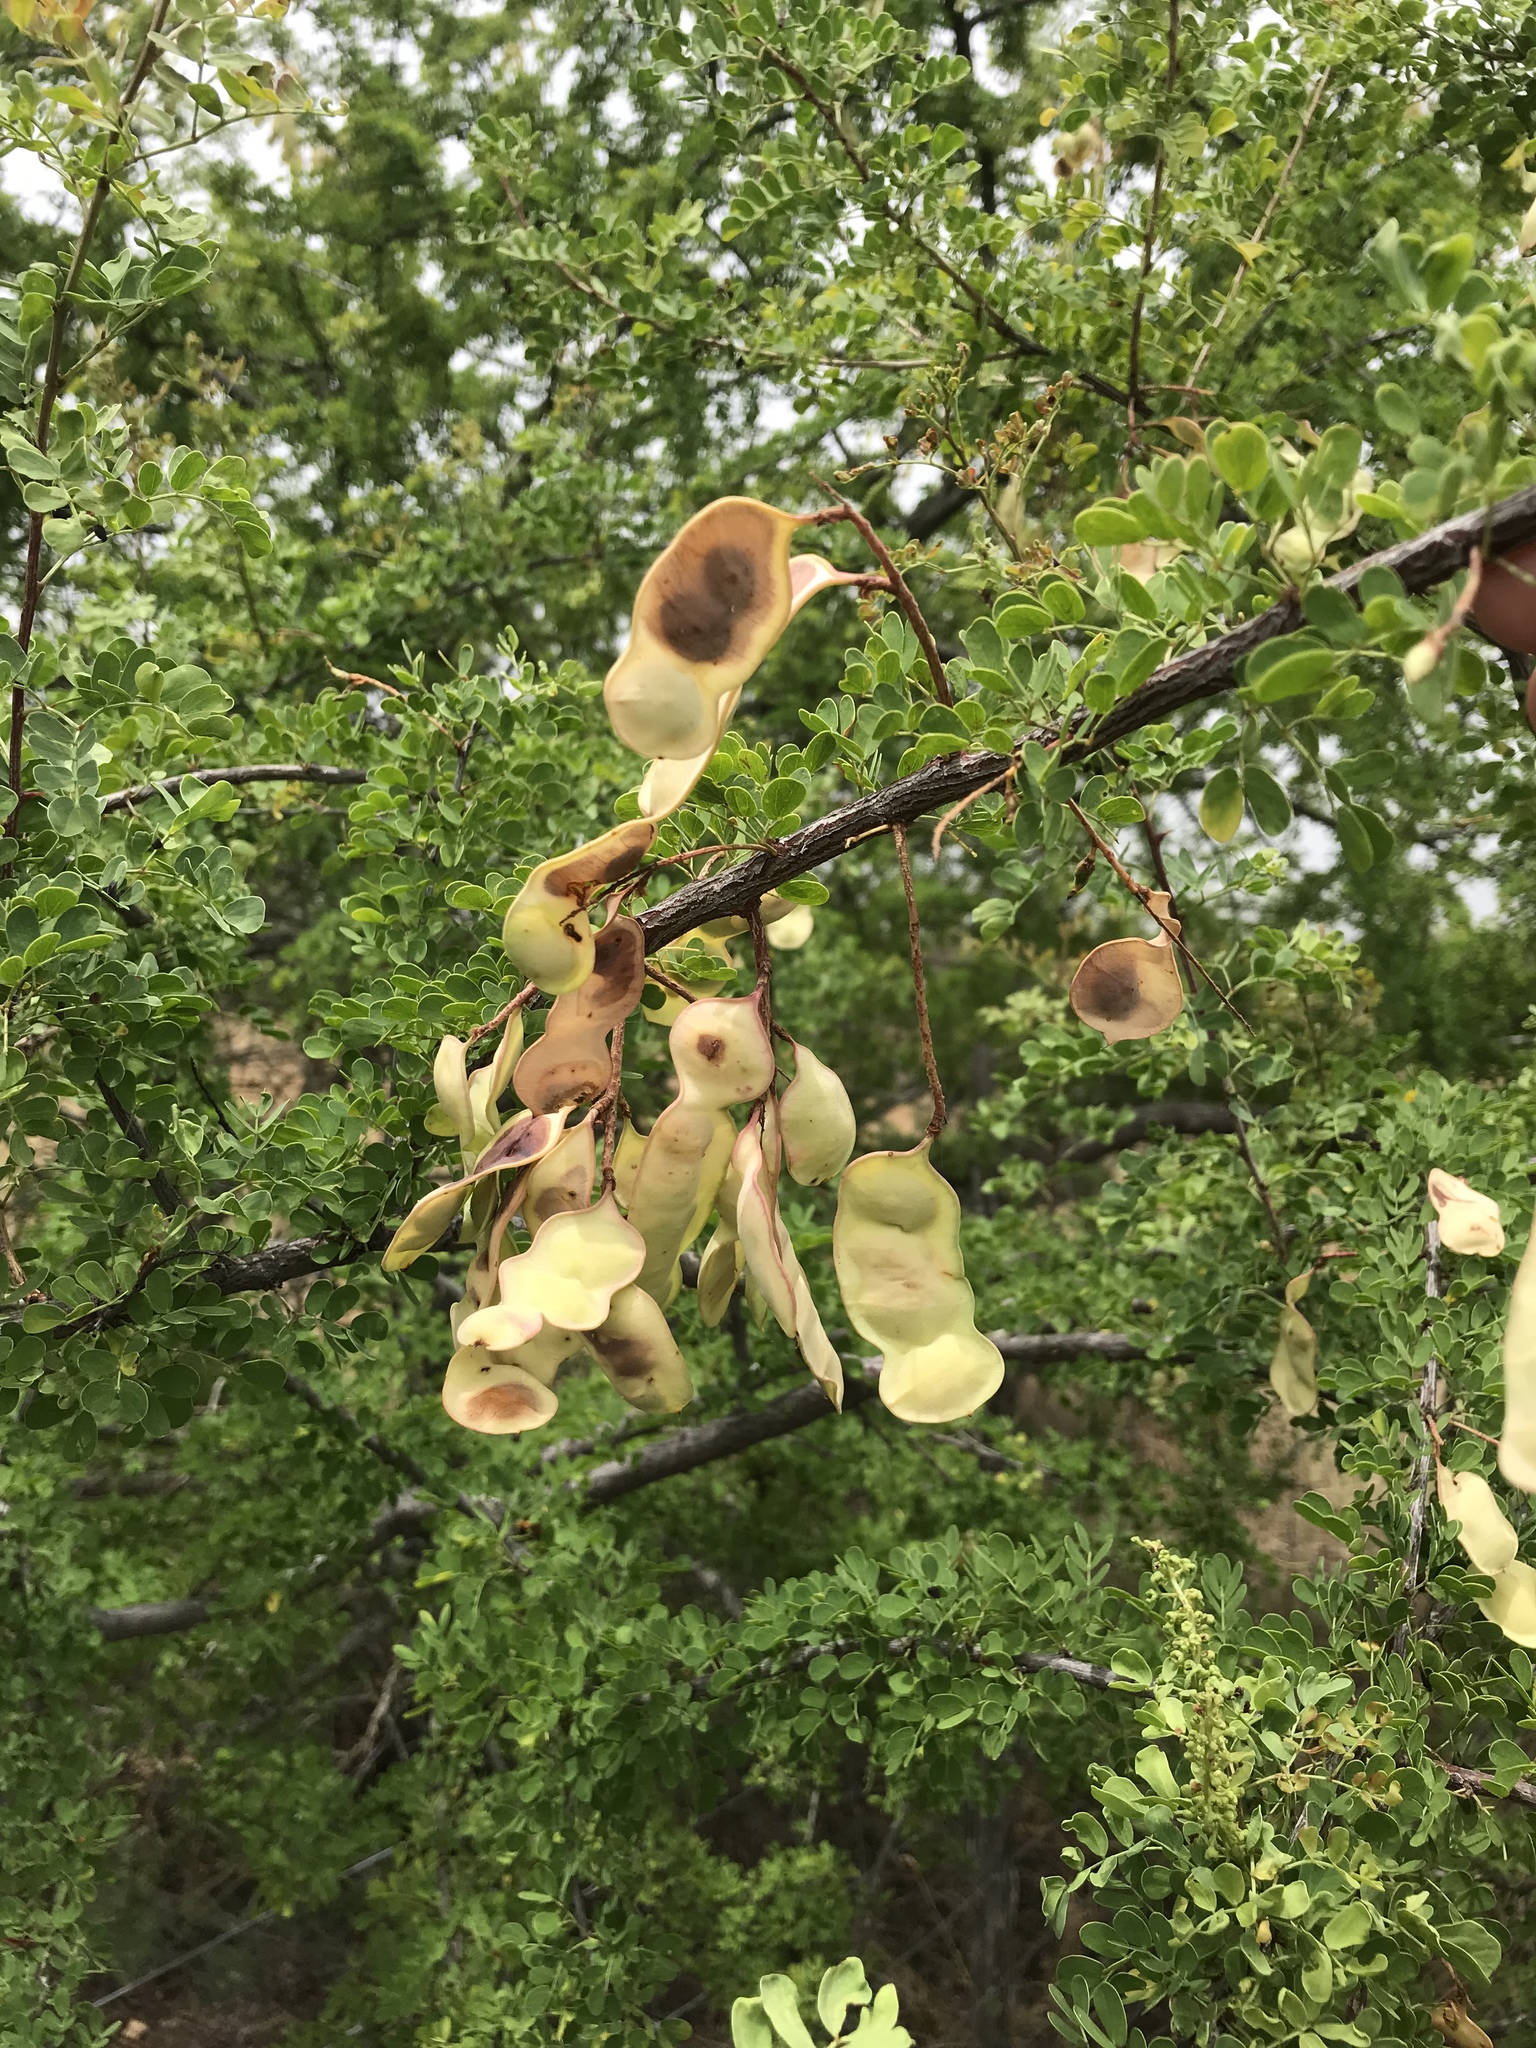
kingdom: Plantae
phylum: Tracheophyta
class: Magnoliopsida
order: Fabales
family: Fabaceae
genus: Senegalia
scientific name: Senegalia greggii
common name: Texas-mimosa
